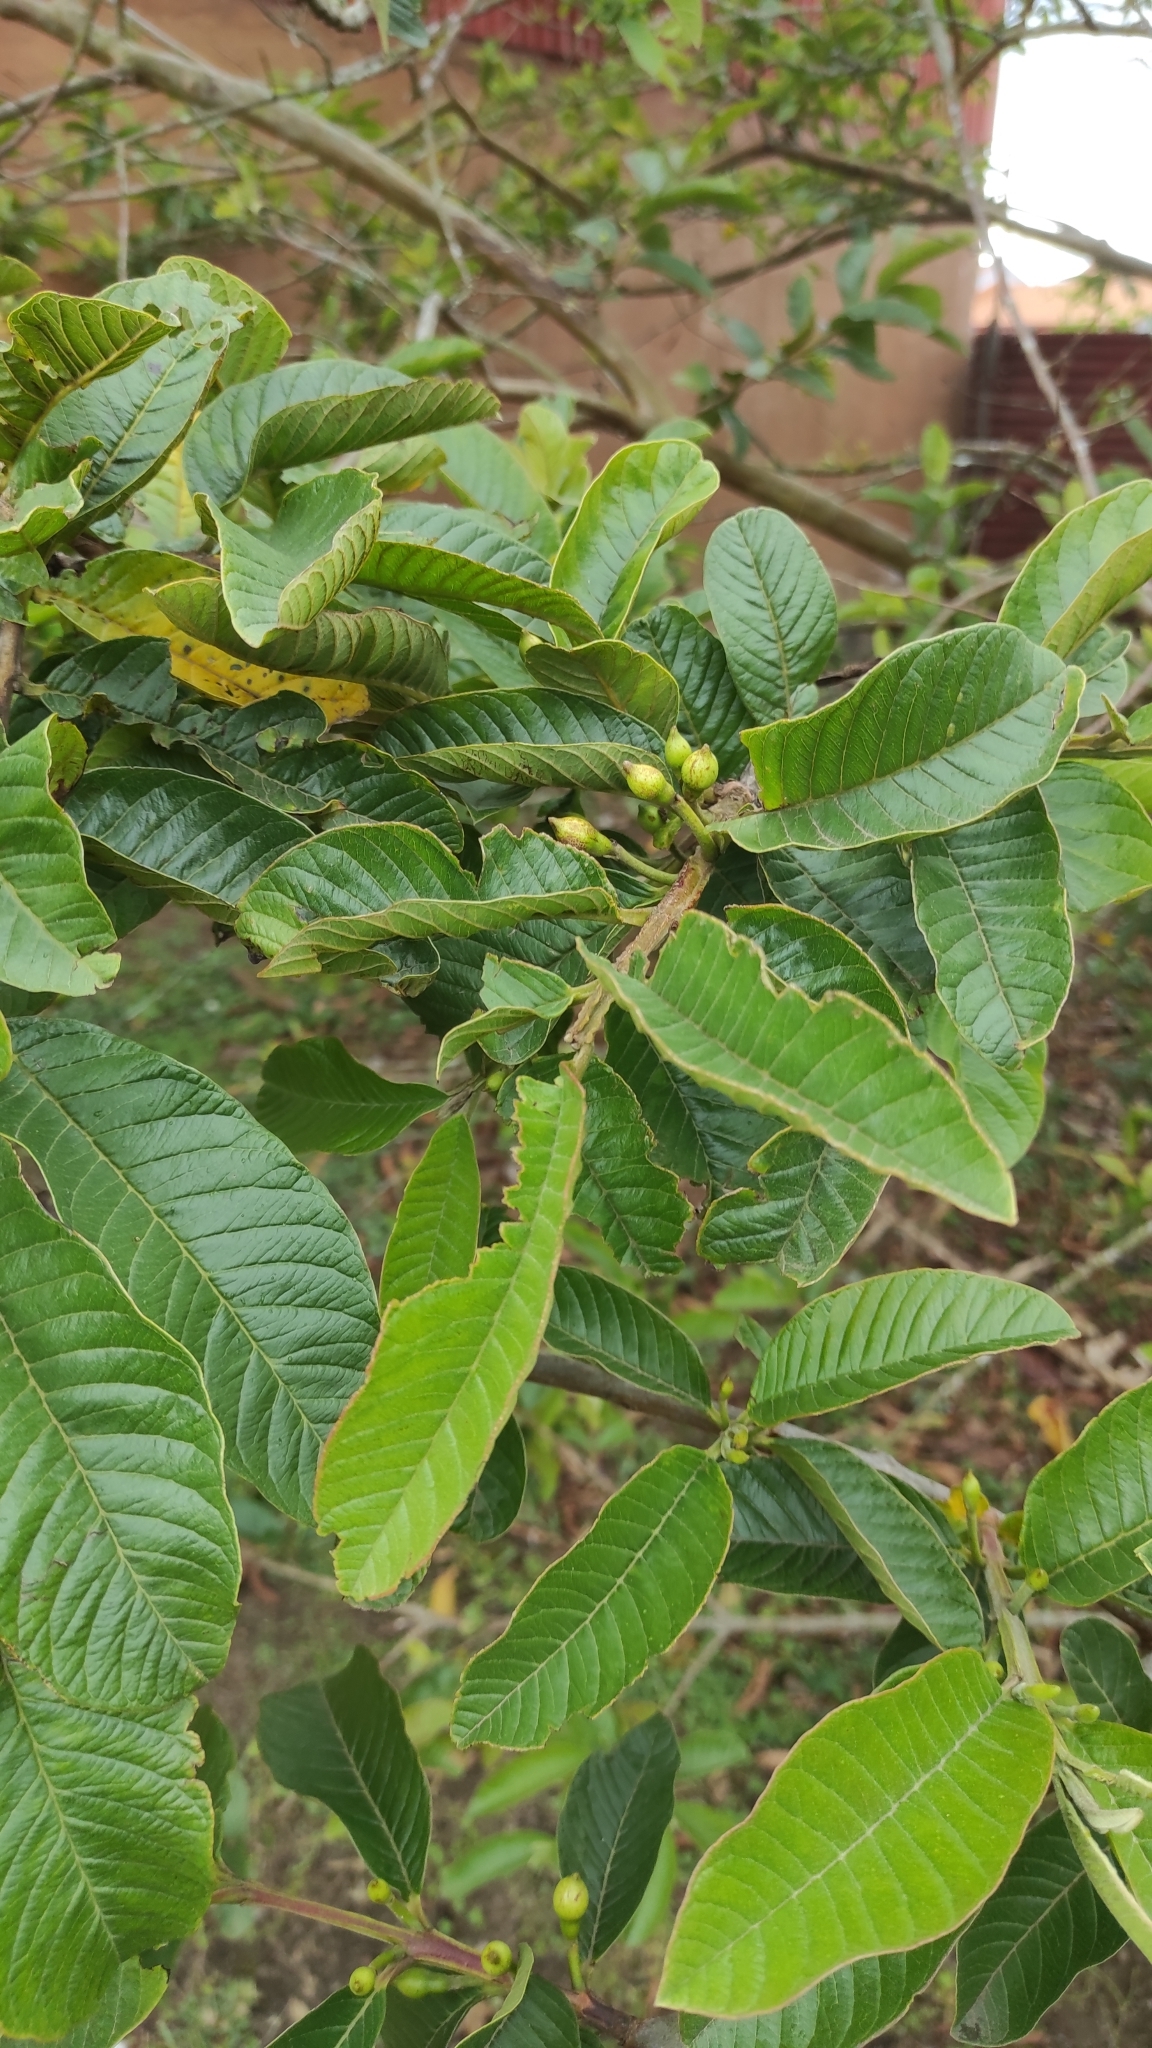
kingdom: Plantae
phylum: Tracheophyta
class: Magnoliopsida
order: Myrtales
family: Myrtaceae
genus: Psidium
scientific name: Psidium guajava
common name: Guava
